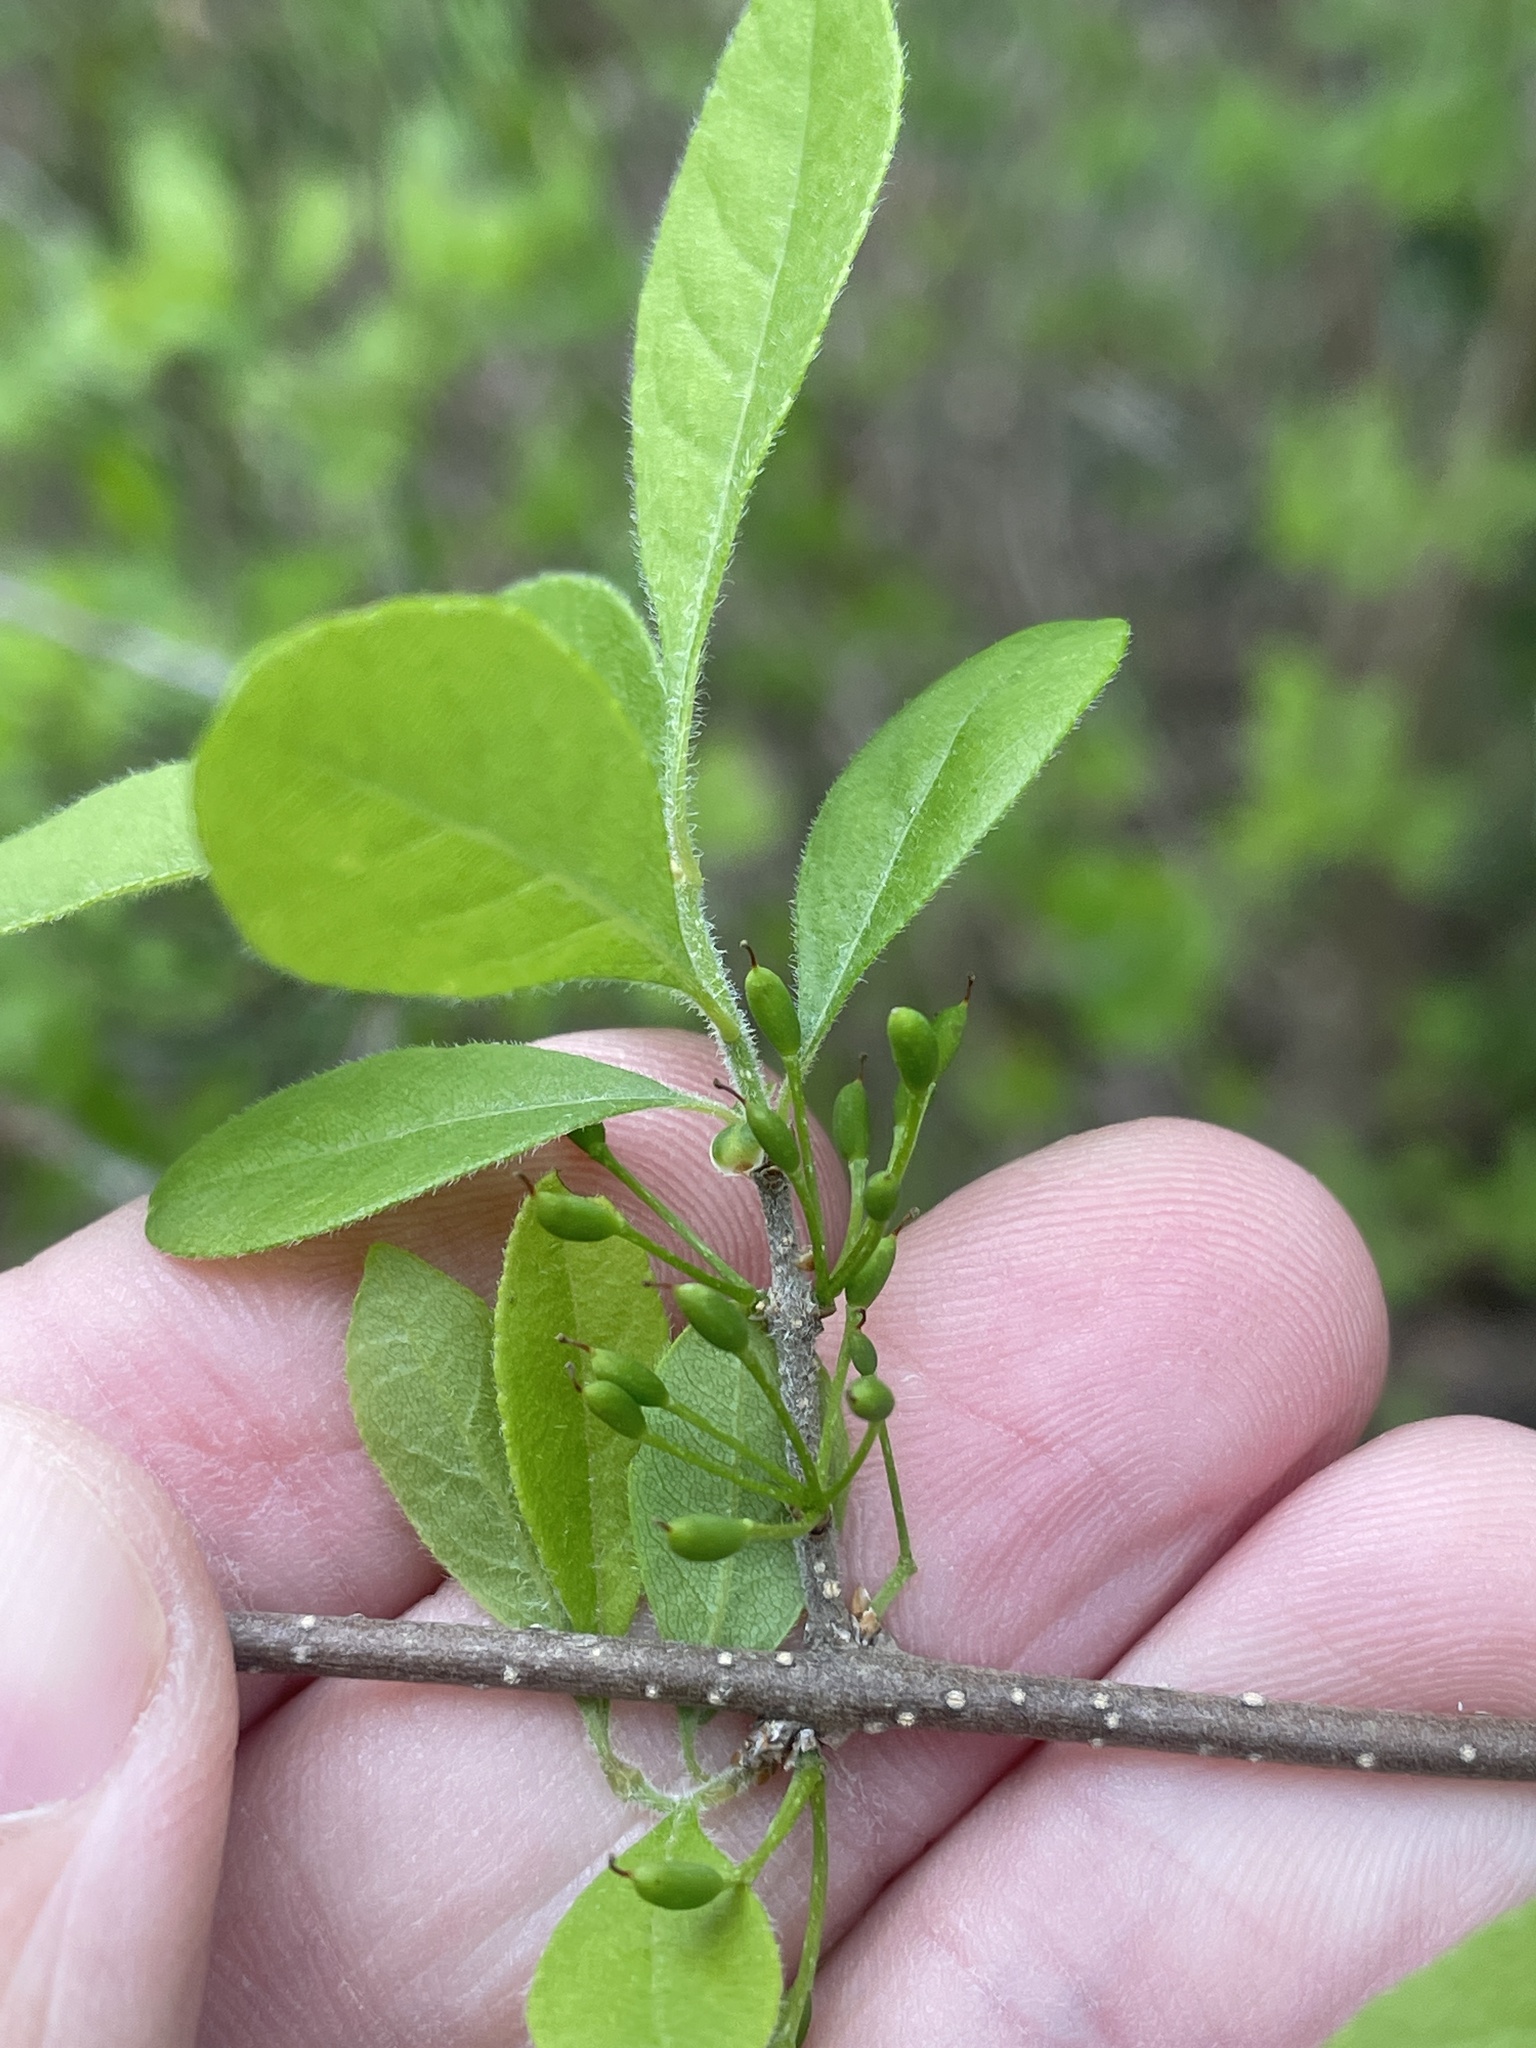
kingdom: Plantae
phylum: Tracheophyta
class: Magnoliopsida
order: Lamiales
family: Oleaceae
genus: Forestiera
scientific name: Forestiera pubescens
